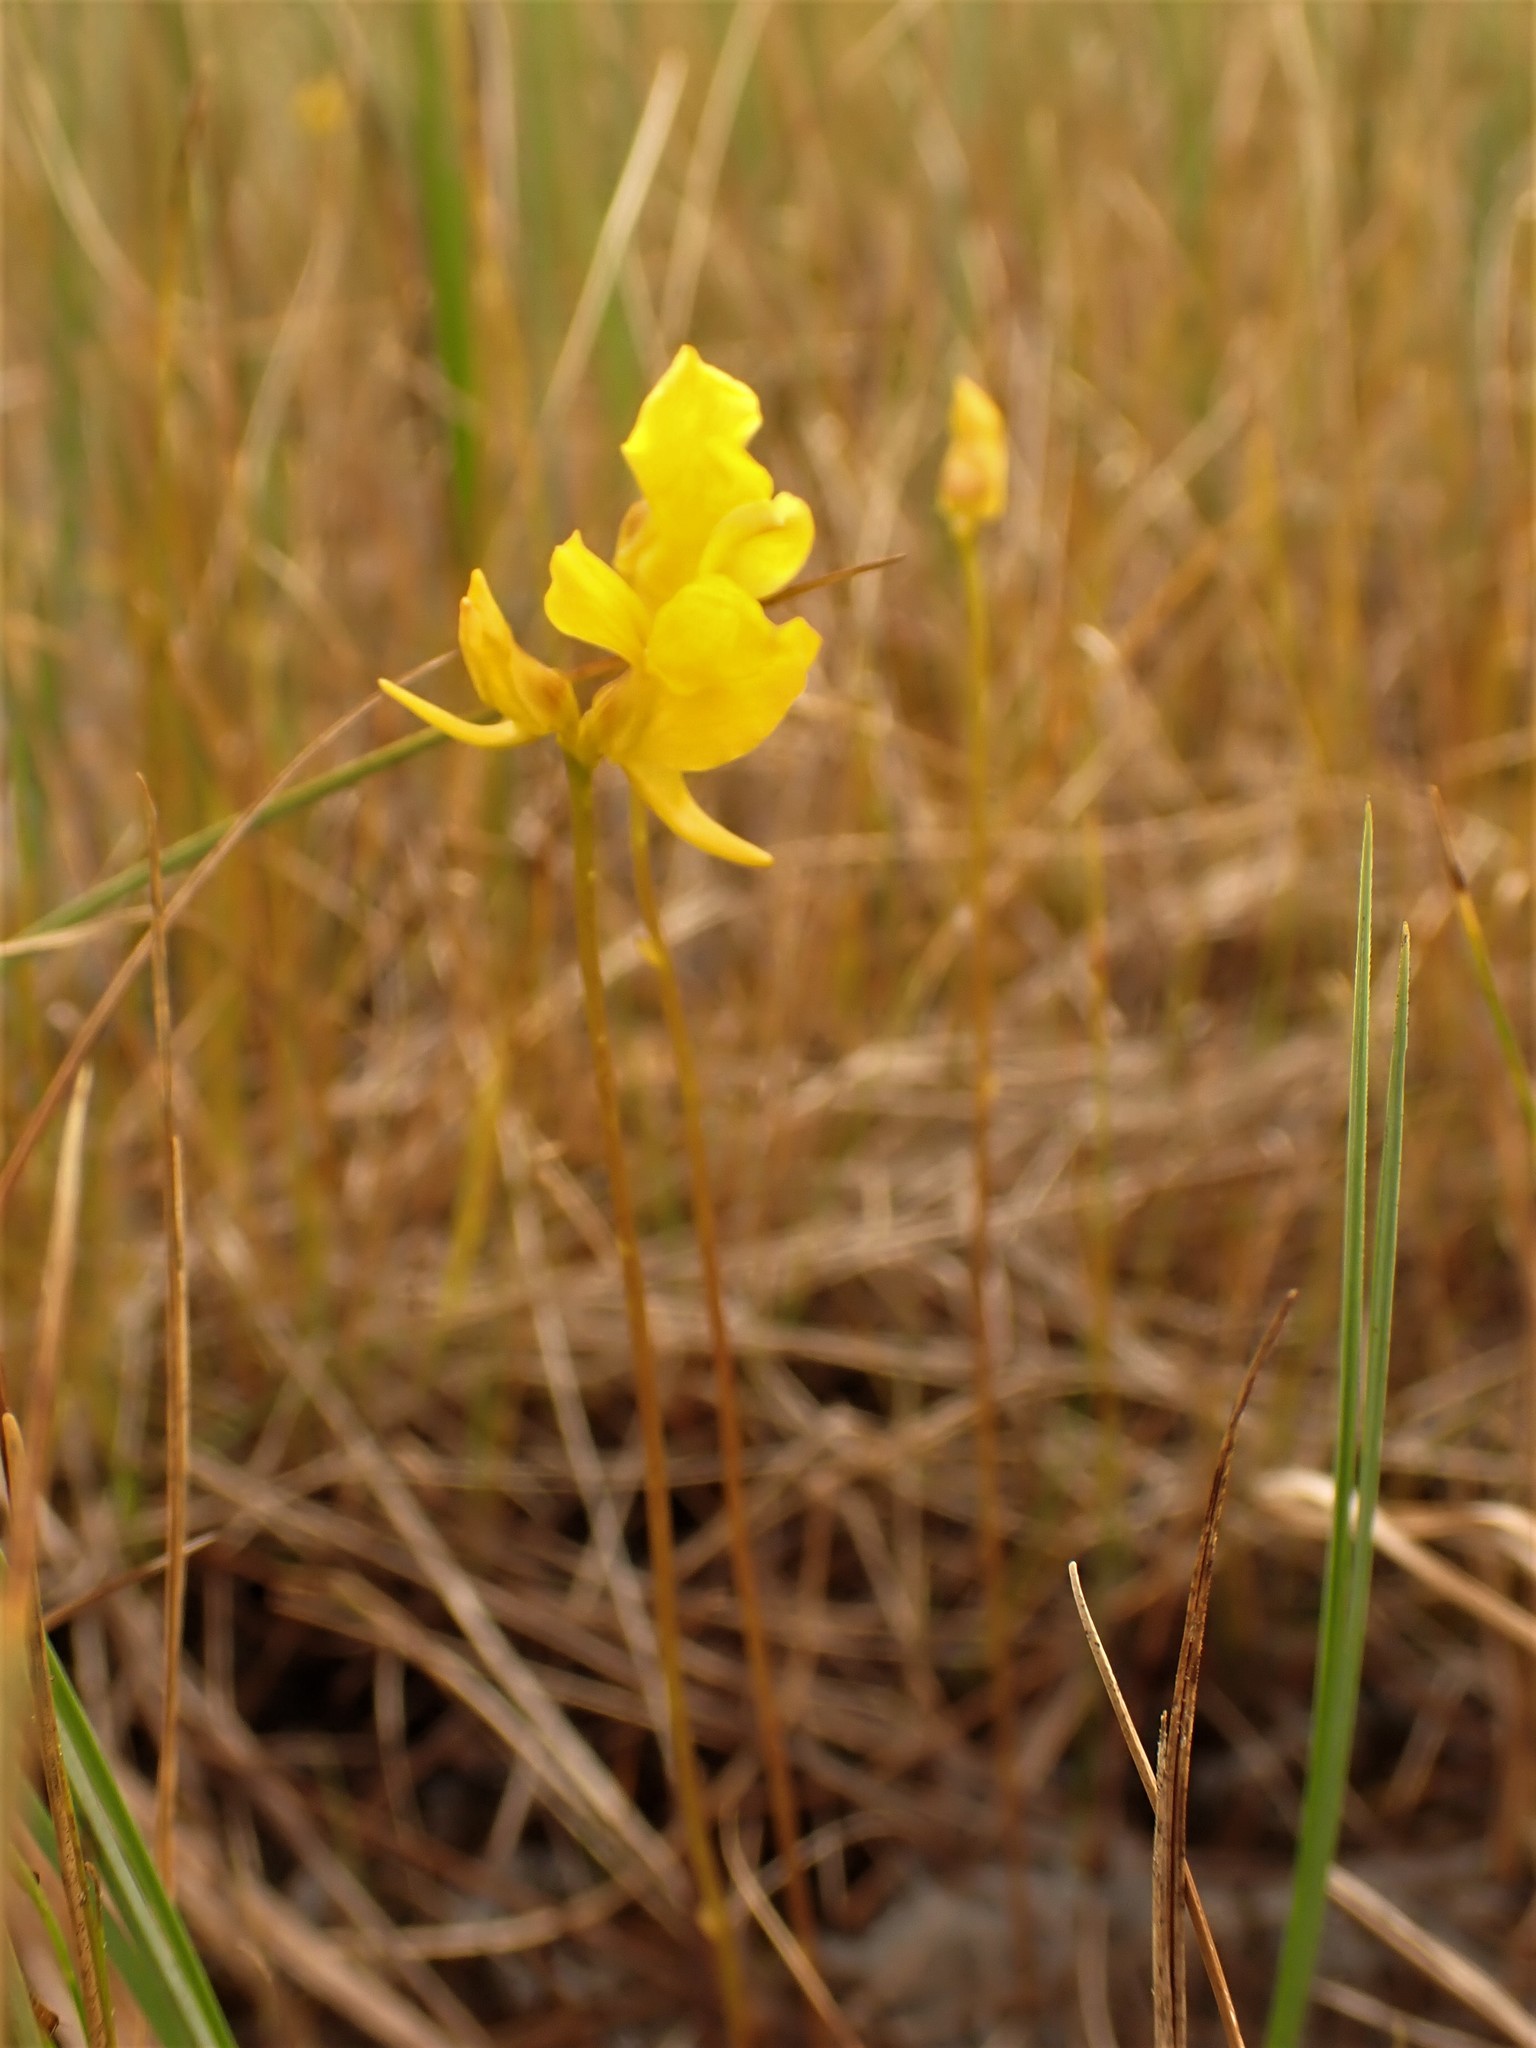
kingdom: Plantae
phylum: Tracheophyta
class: Magnoliopsida
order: Lamiales
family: Lentibulariaceae
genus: Utricularia
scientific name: Utricularia cornuta
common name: Horned bladderwort
